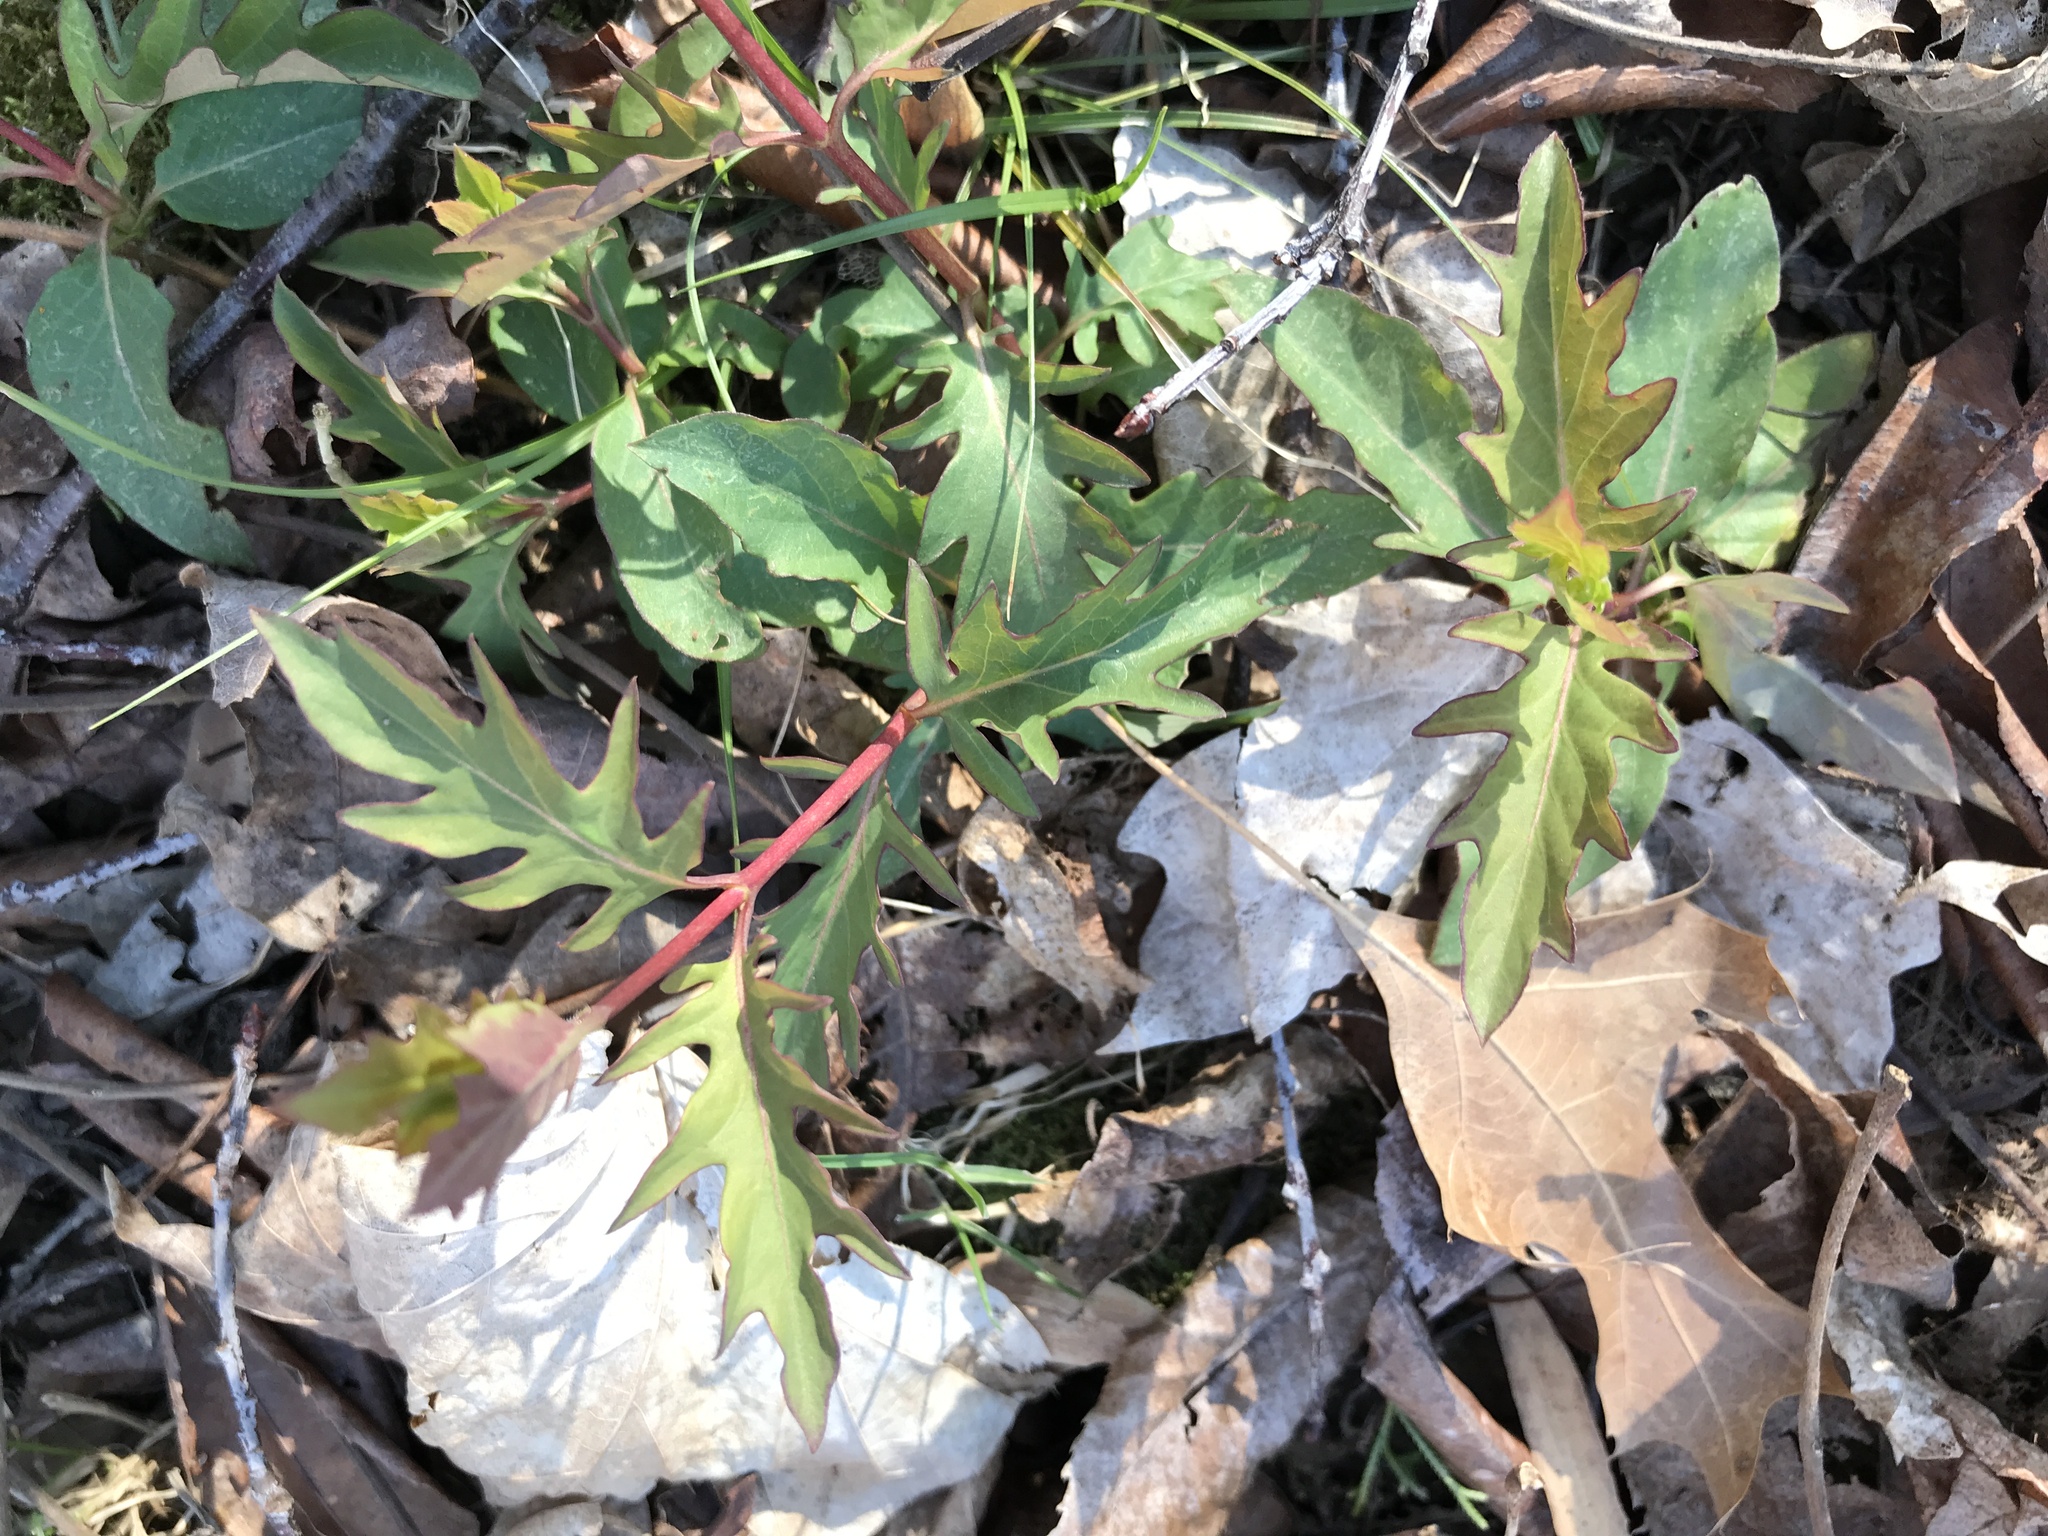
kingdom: Plantae
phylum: Tracheophyta
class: Magnoliopsida
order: Dipsacales
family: Caprifoliaceae
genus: Lonicera
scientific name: Lonicera japonica
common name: Japanese honeysuckle
